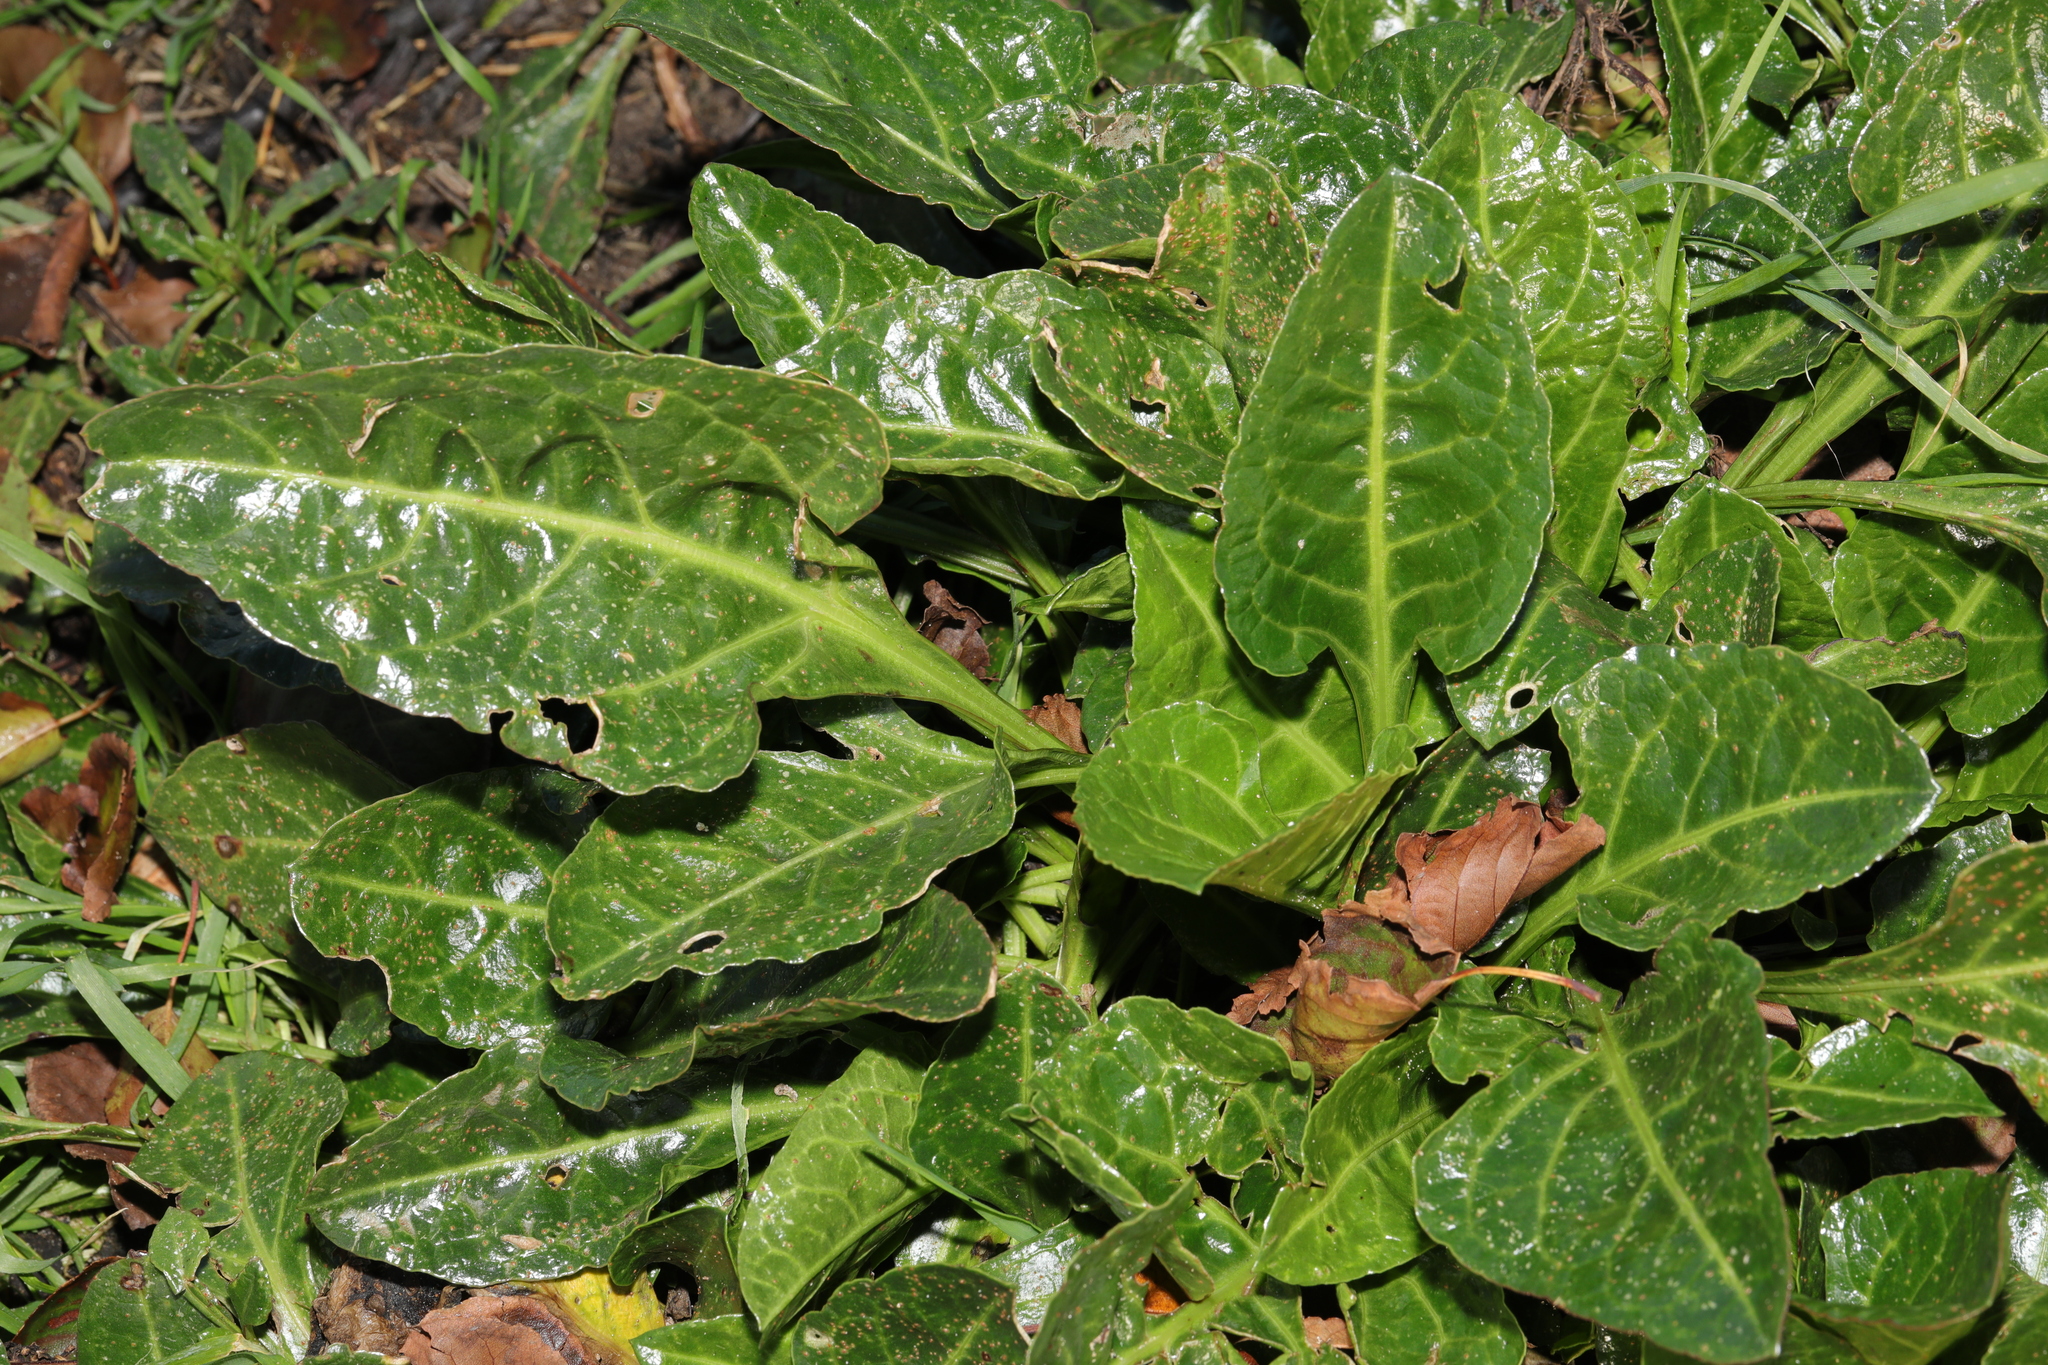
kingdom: Plantae
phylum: Tracheophyta
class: Magnoliopsida
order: Caryophyllales
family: Amaranthaceae
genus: Beta
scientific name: Beta vulgaris
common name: Beet
